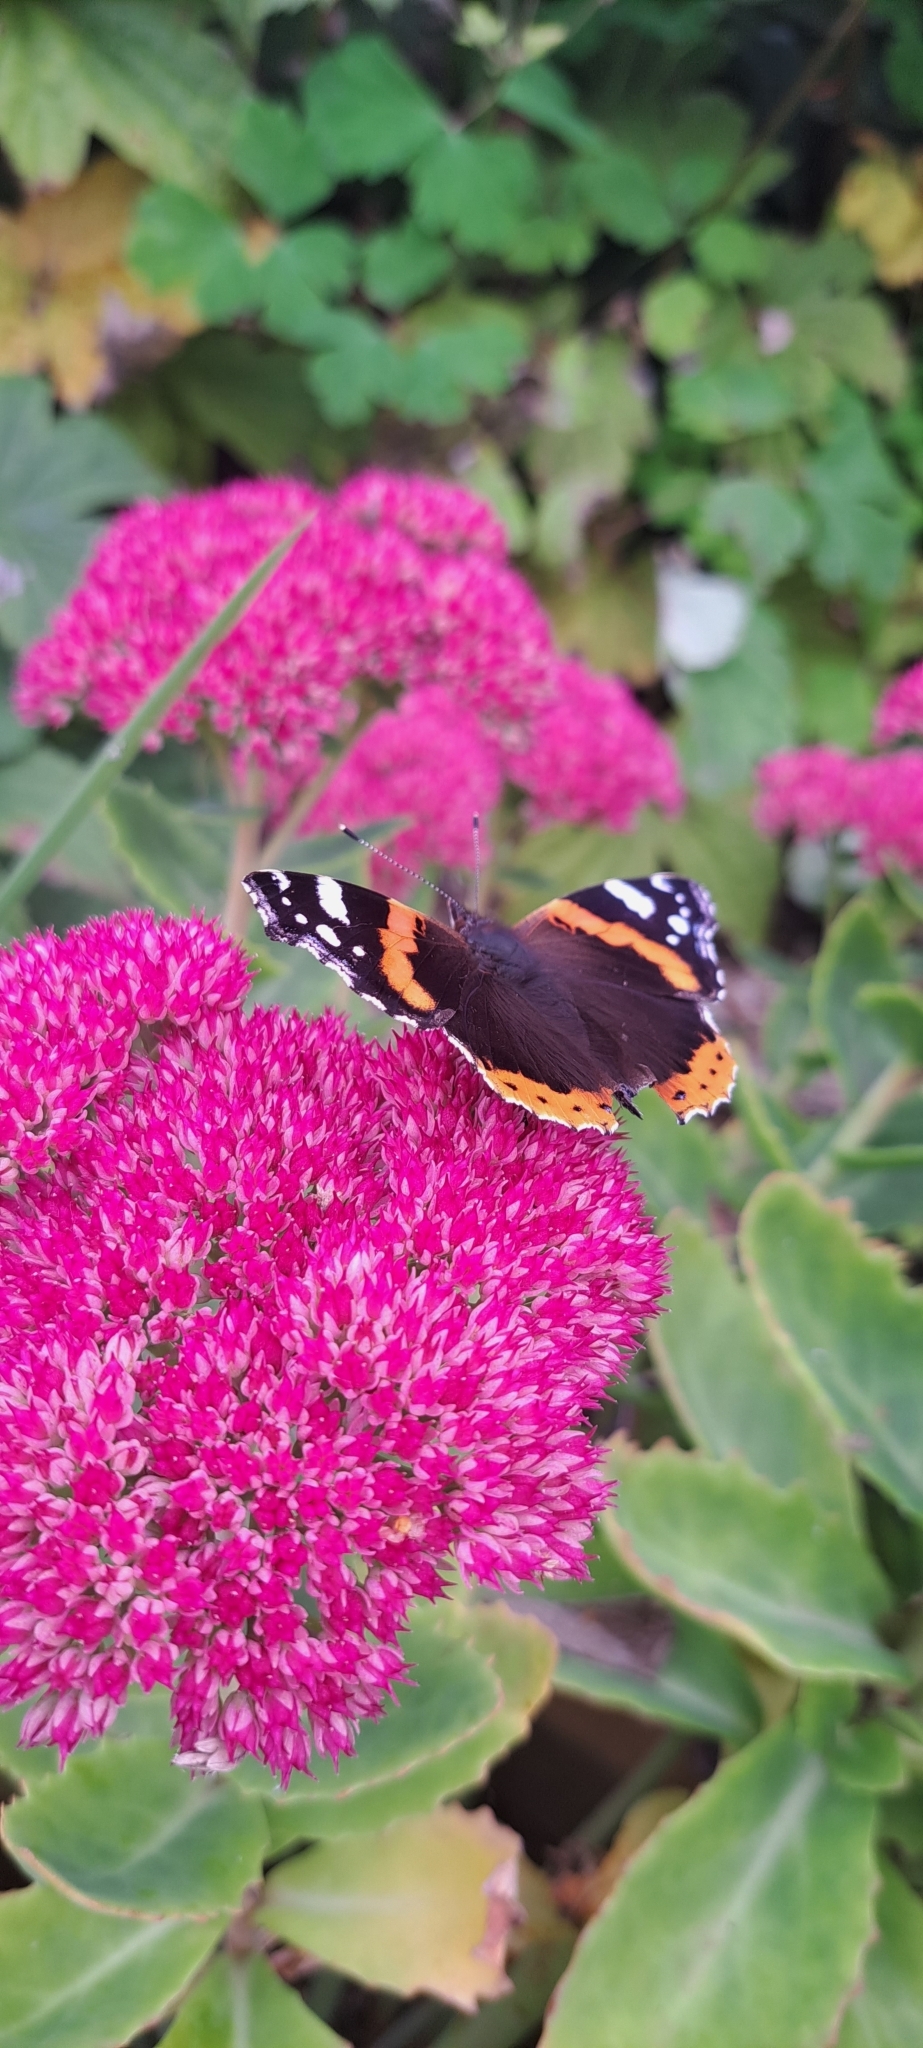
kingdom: Animalia
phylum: Arthropoda
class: Insecta
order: Lepidoptera
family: Nymphalidae
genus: Vanessa
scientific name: Vanessa atalanta
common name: Red admiral
